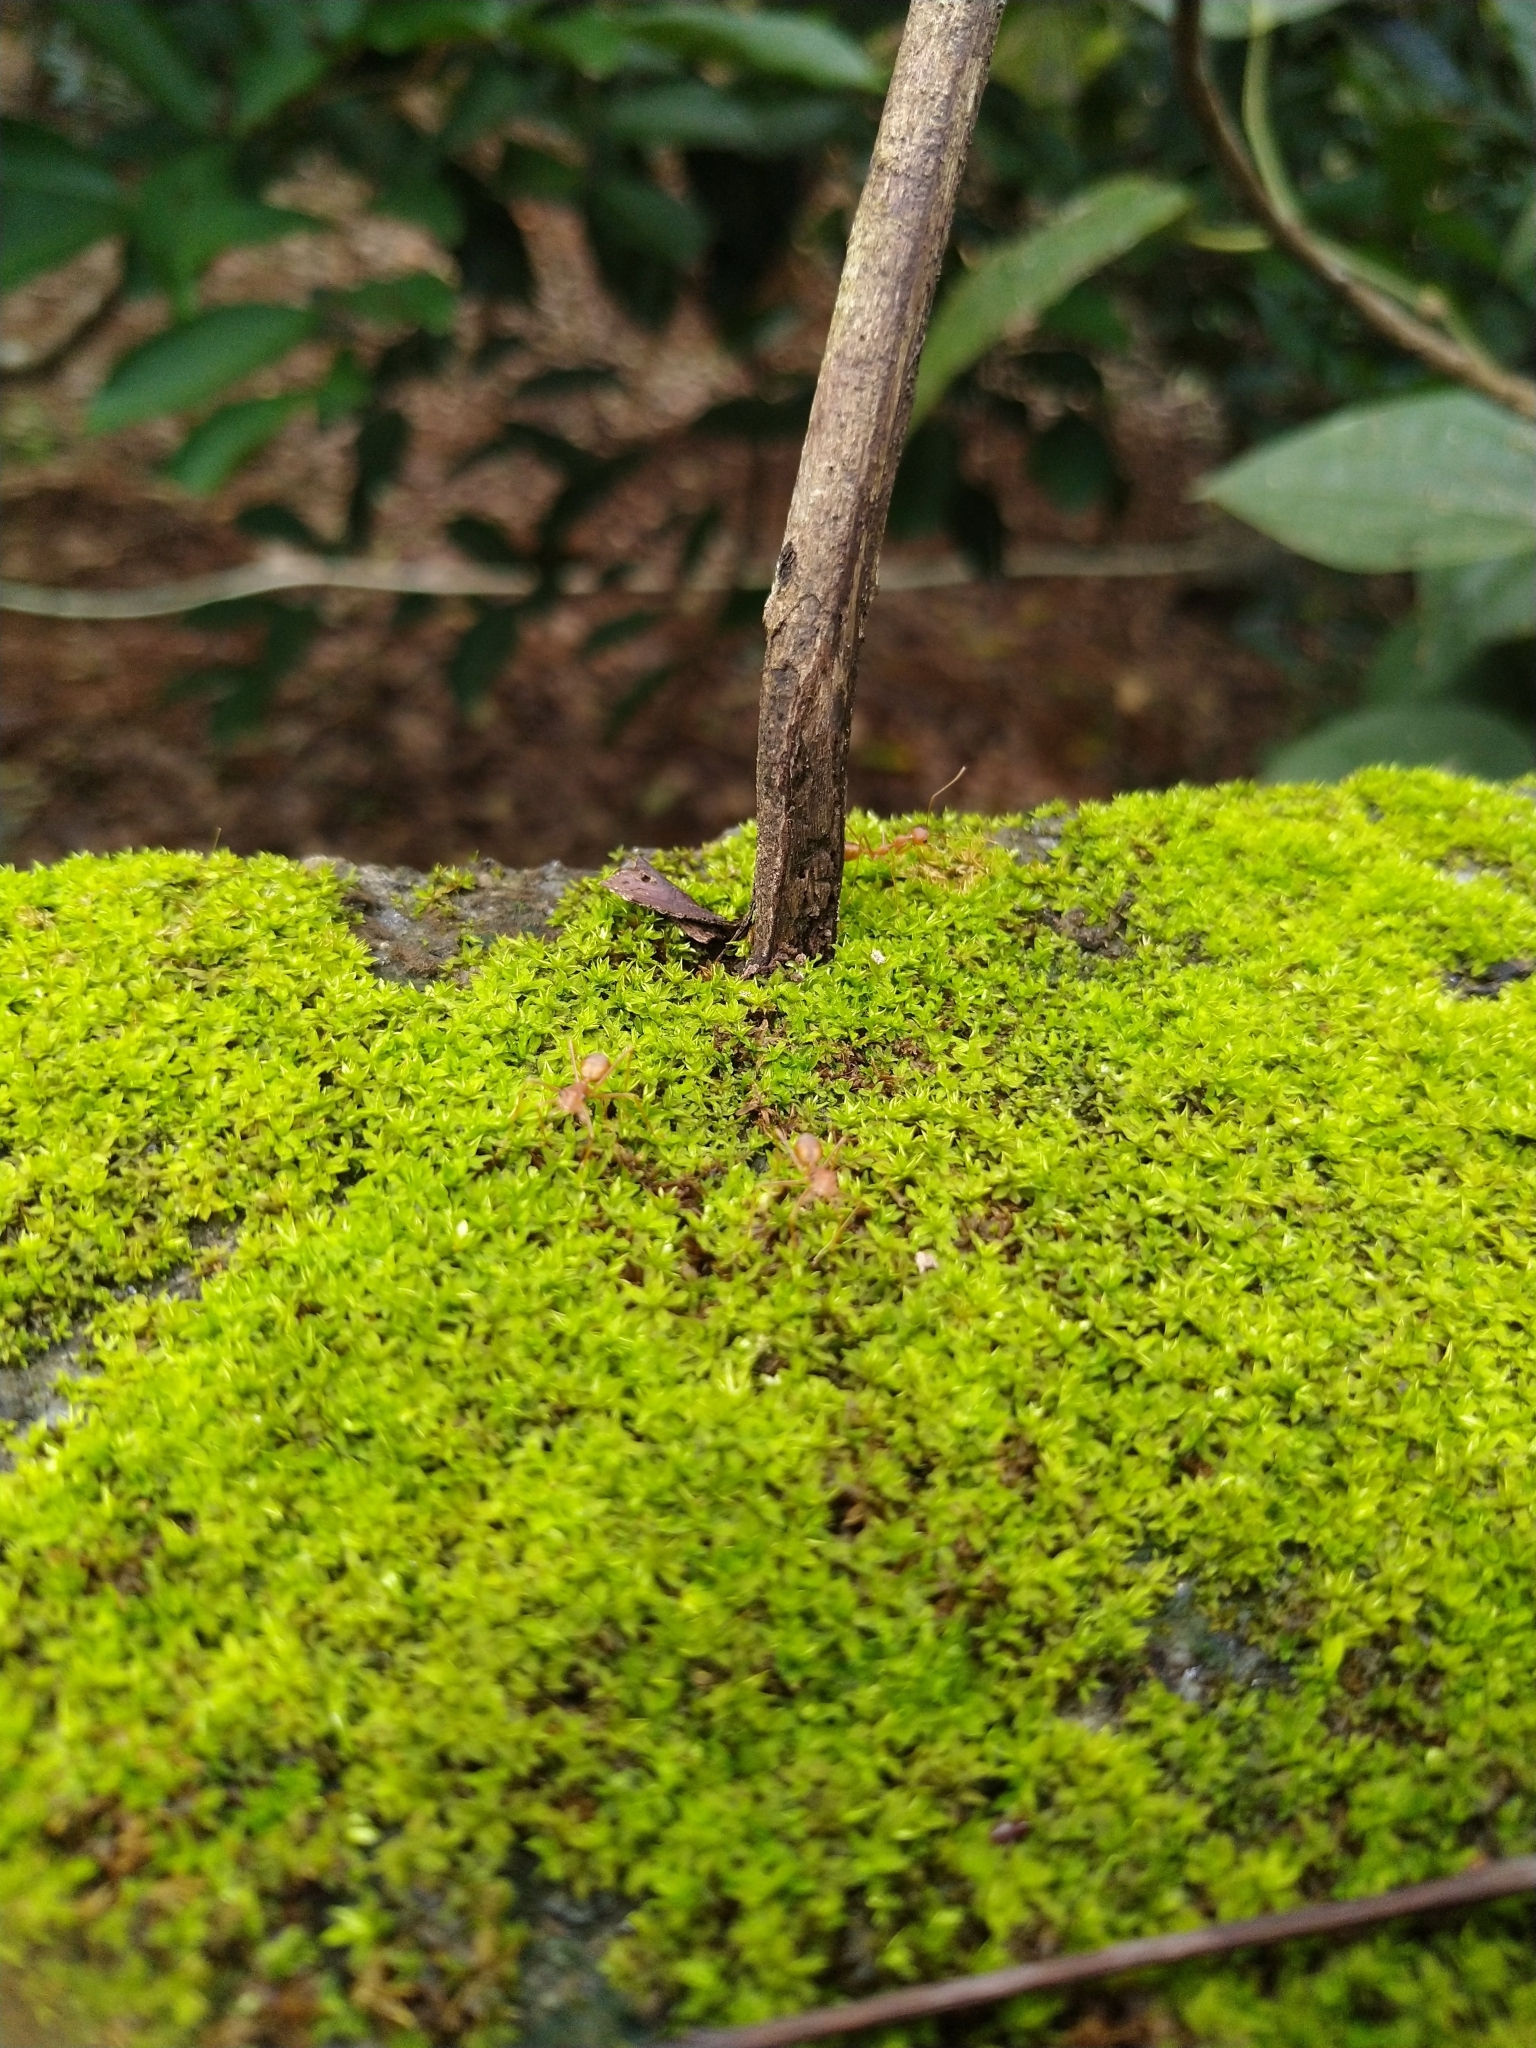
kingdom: Animalia
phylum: Arthropoda
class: Insecta
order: Hymenoptera
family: Formicidae
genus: Oecophylla
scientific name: Oecophylla smaragdina
